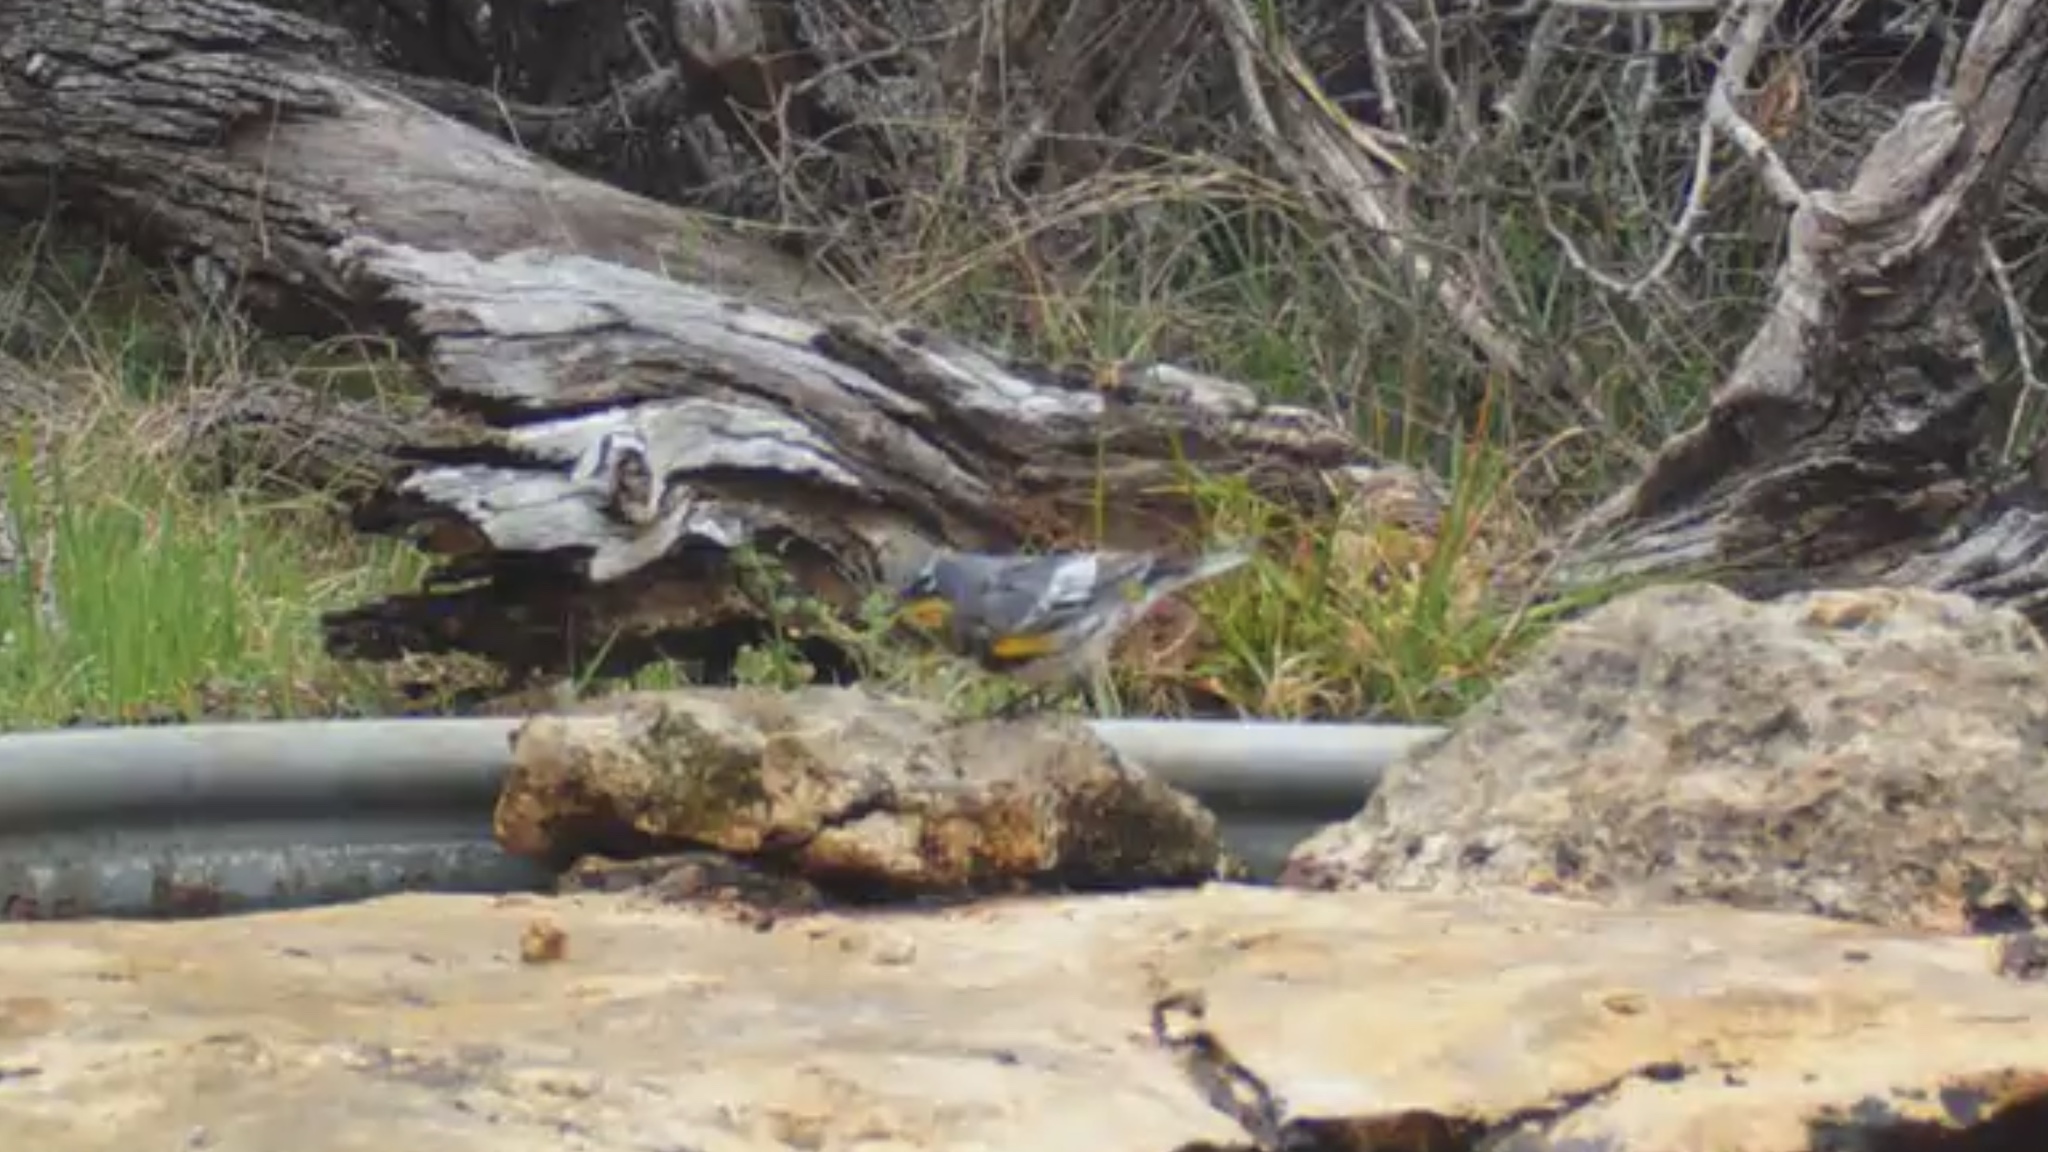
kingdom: Animalia
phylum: Chordata
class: Aves
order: Passeriformes
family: Parulidae
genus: Setophaga
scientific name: Setophaga coronata
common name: Myrtle warbler
